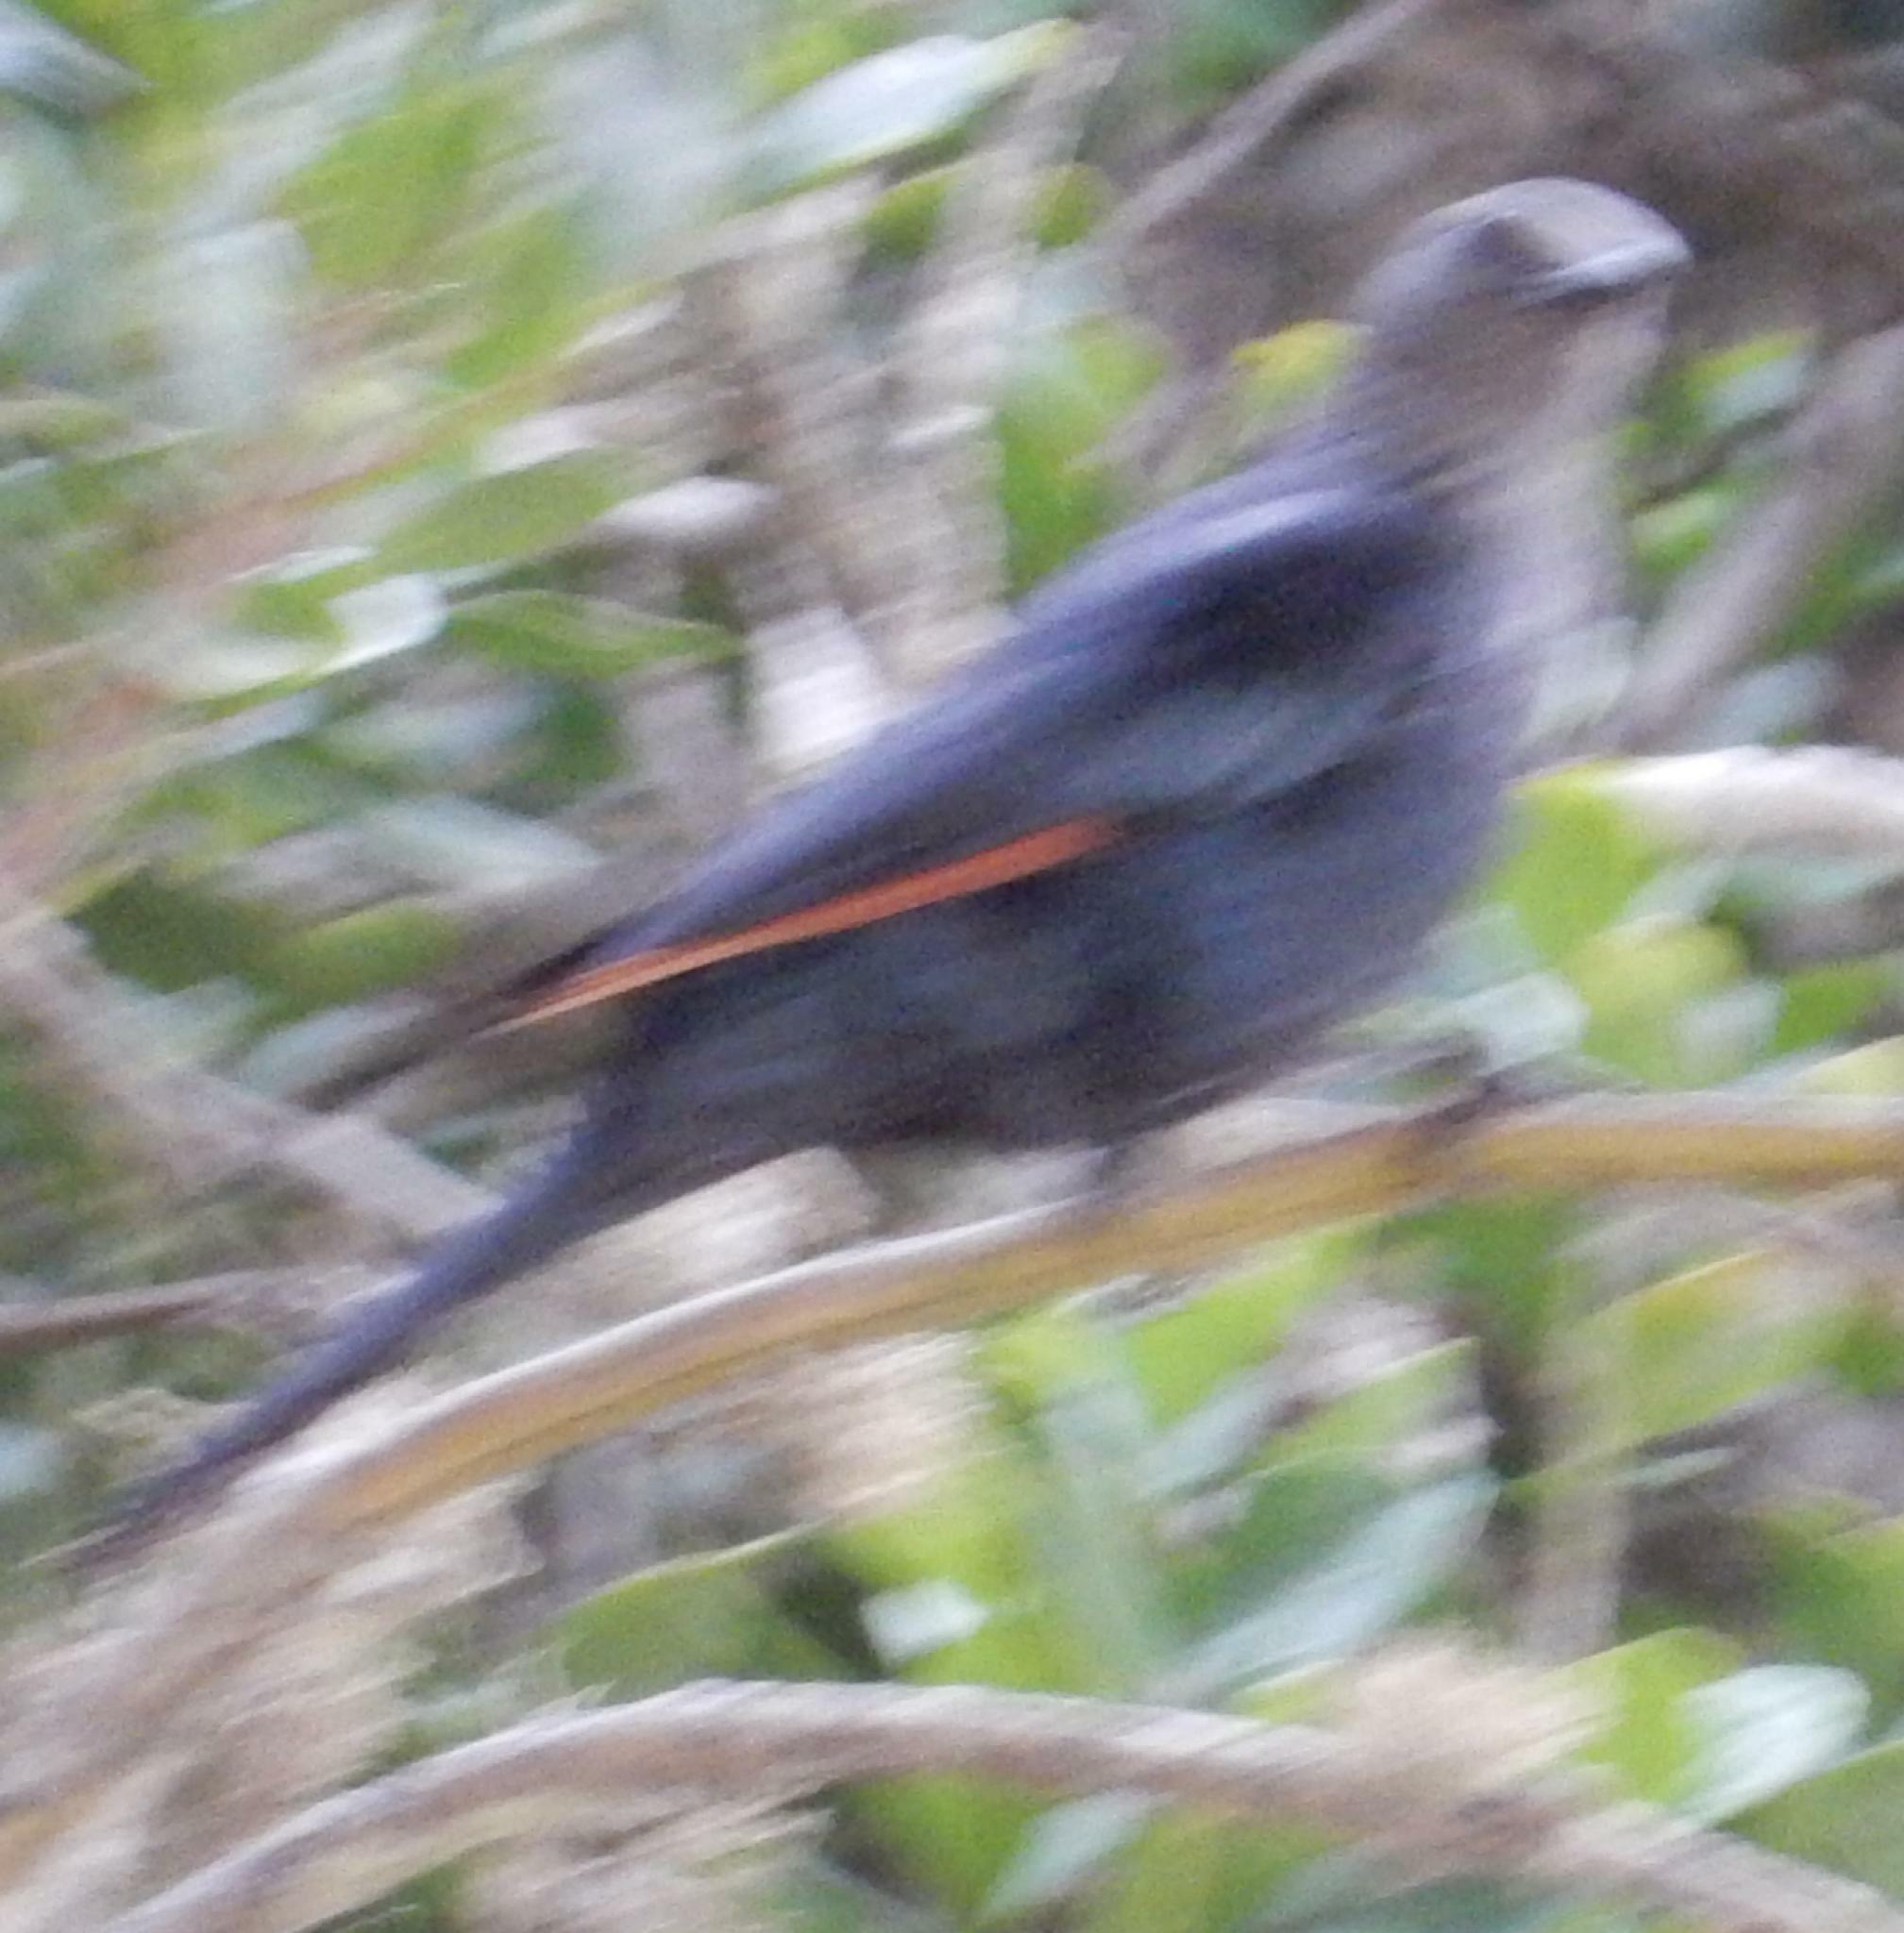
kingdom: Animalia
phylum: Chordata
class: Aves
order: Passeriformes
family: Sturnidae
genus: Onychognathus
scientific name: Onychognathus morio
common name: Red-winged starling
